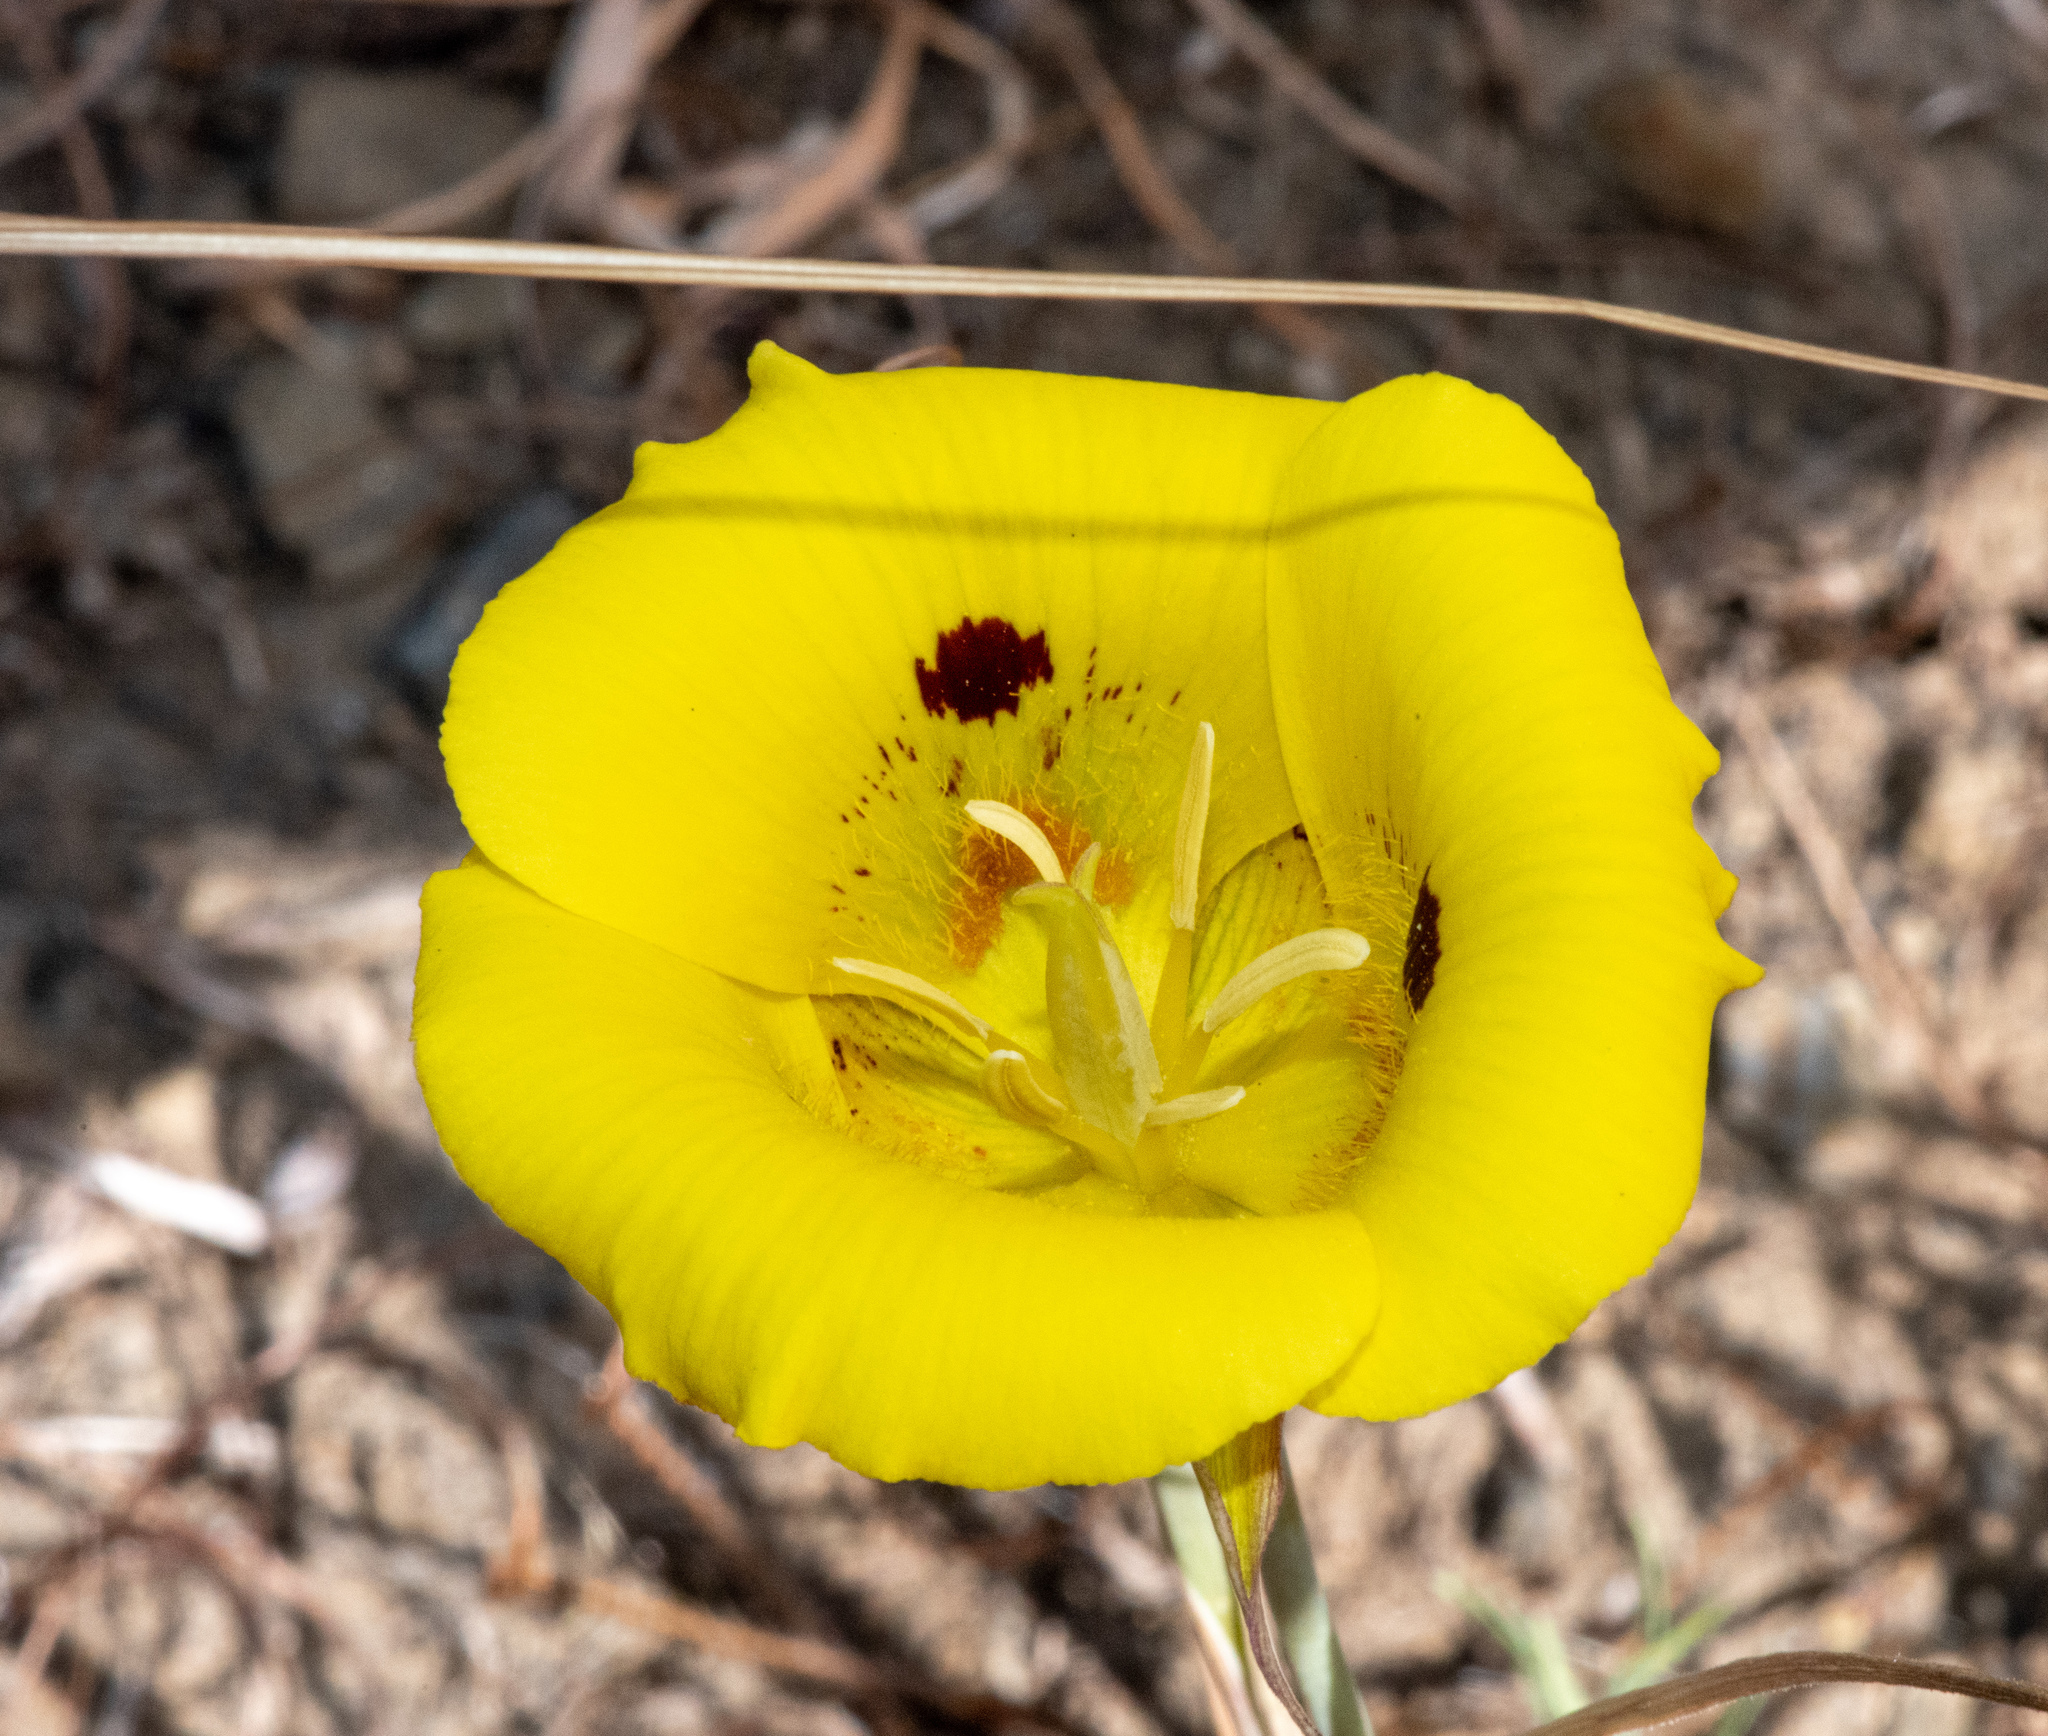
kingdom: Plantae
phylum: Tracheophyta
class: Liliopsida
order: Liliales
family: Liliaceae
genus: Calochortus
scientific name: Calochortus luteus
